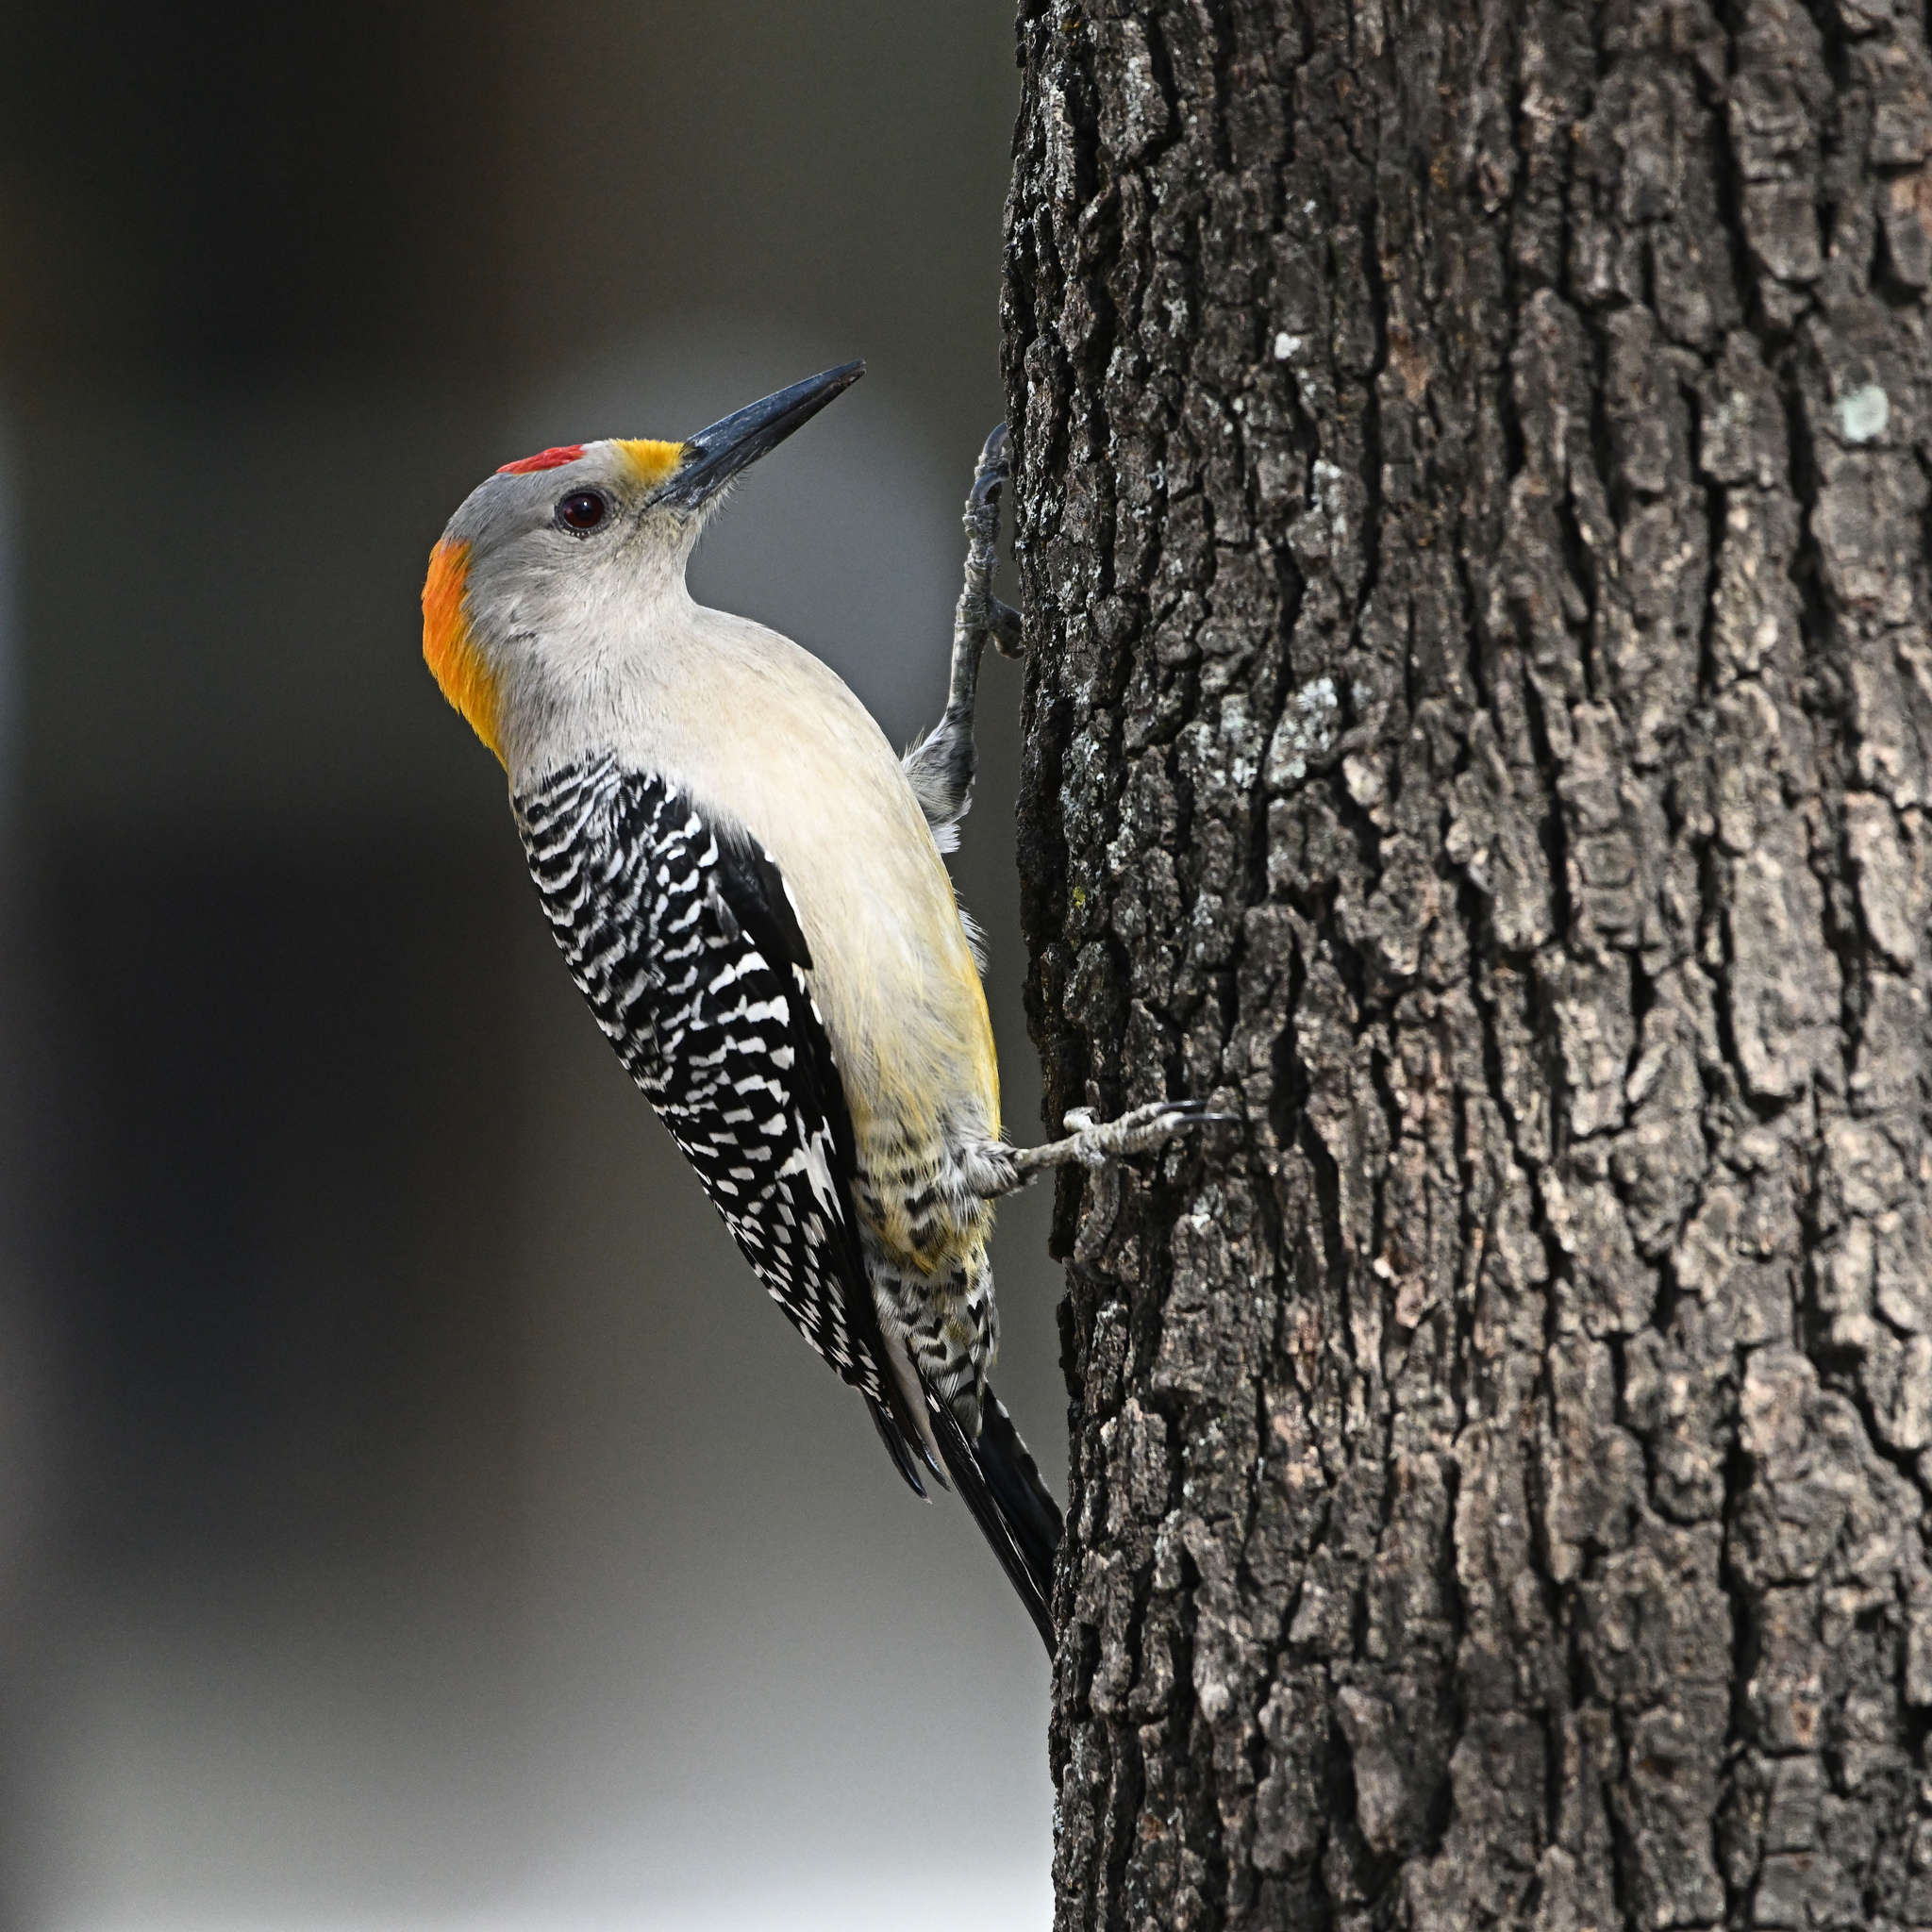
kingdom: Animalia
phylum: Chordata
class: Aves
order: Piciformes
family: Picidae
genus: Melanerpes
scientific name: Melanerpes aurifrons
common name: Golden-fronted woodpecker
